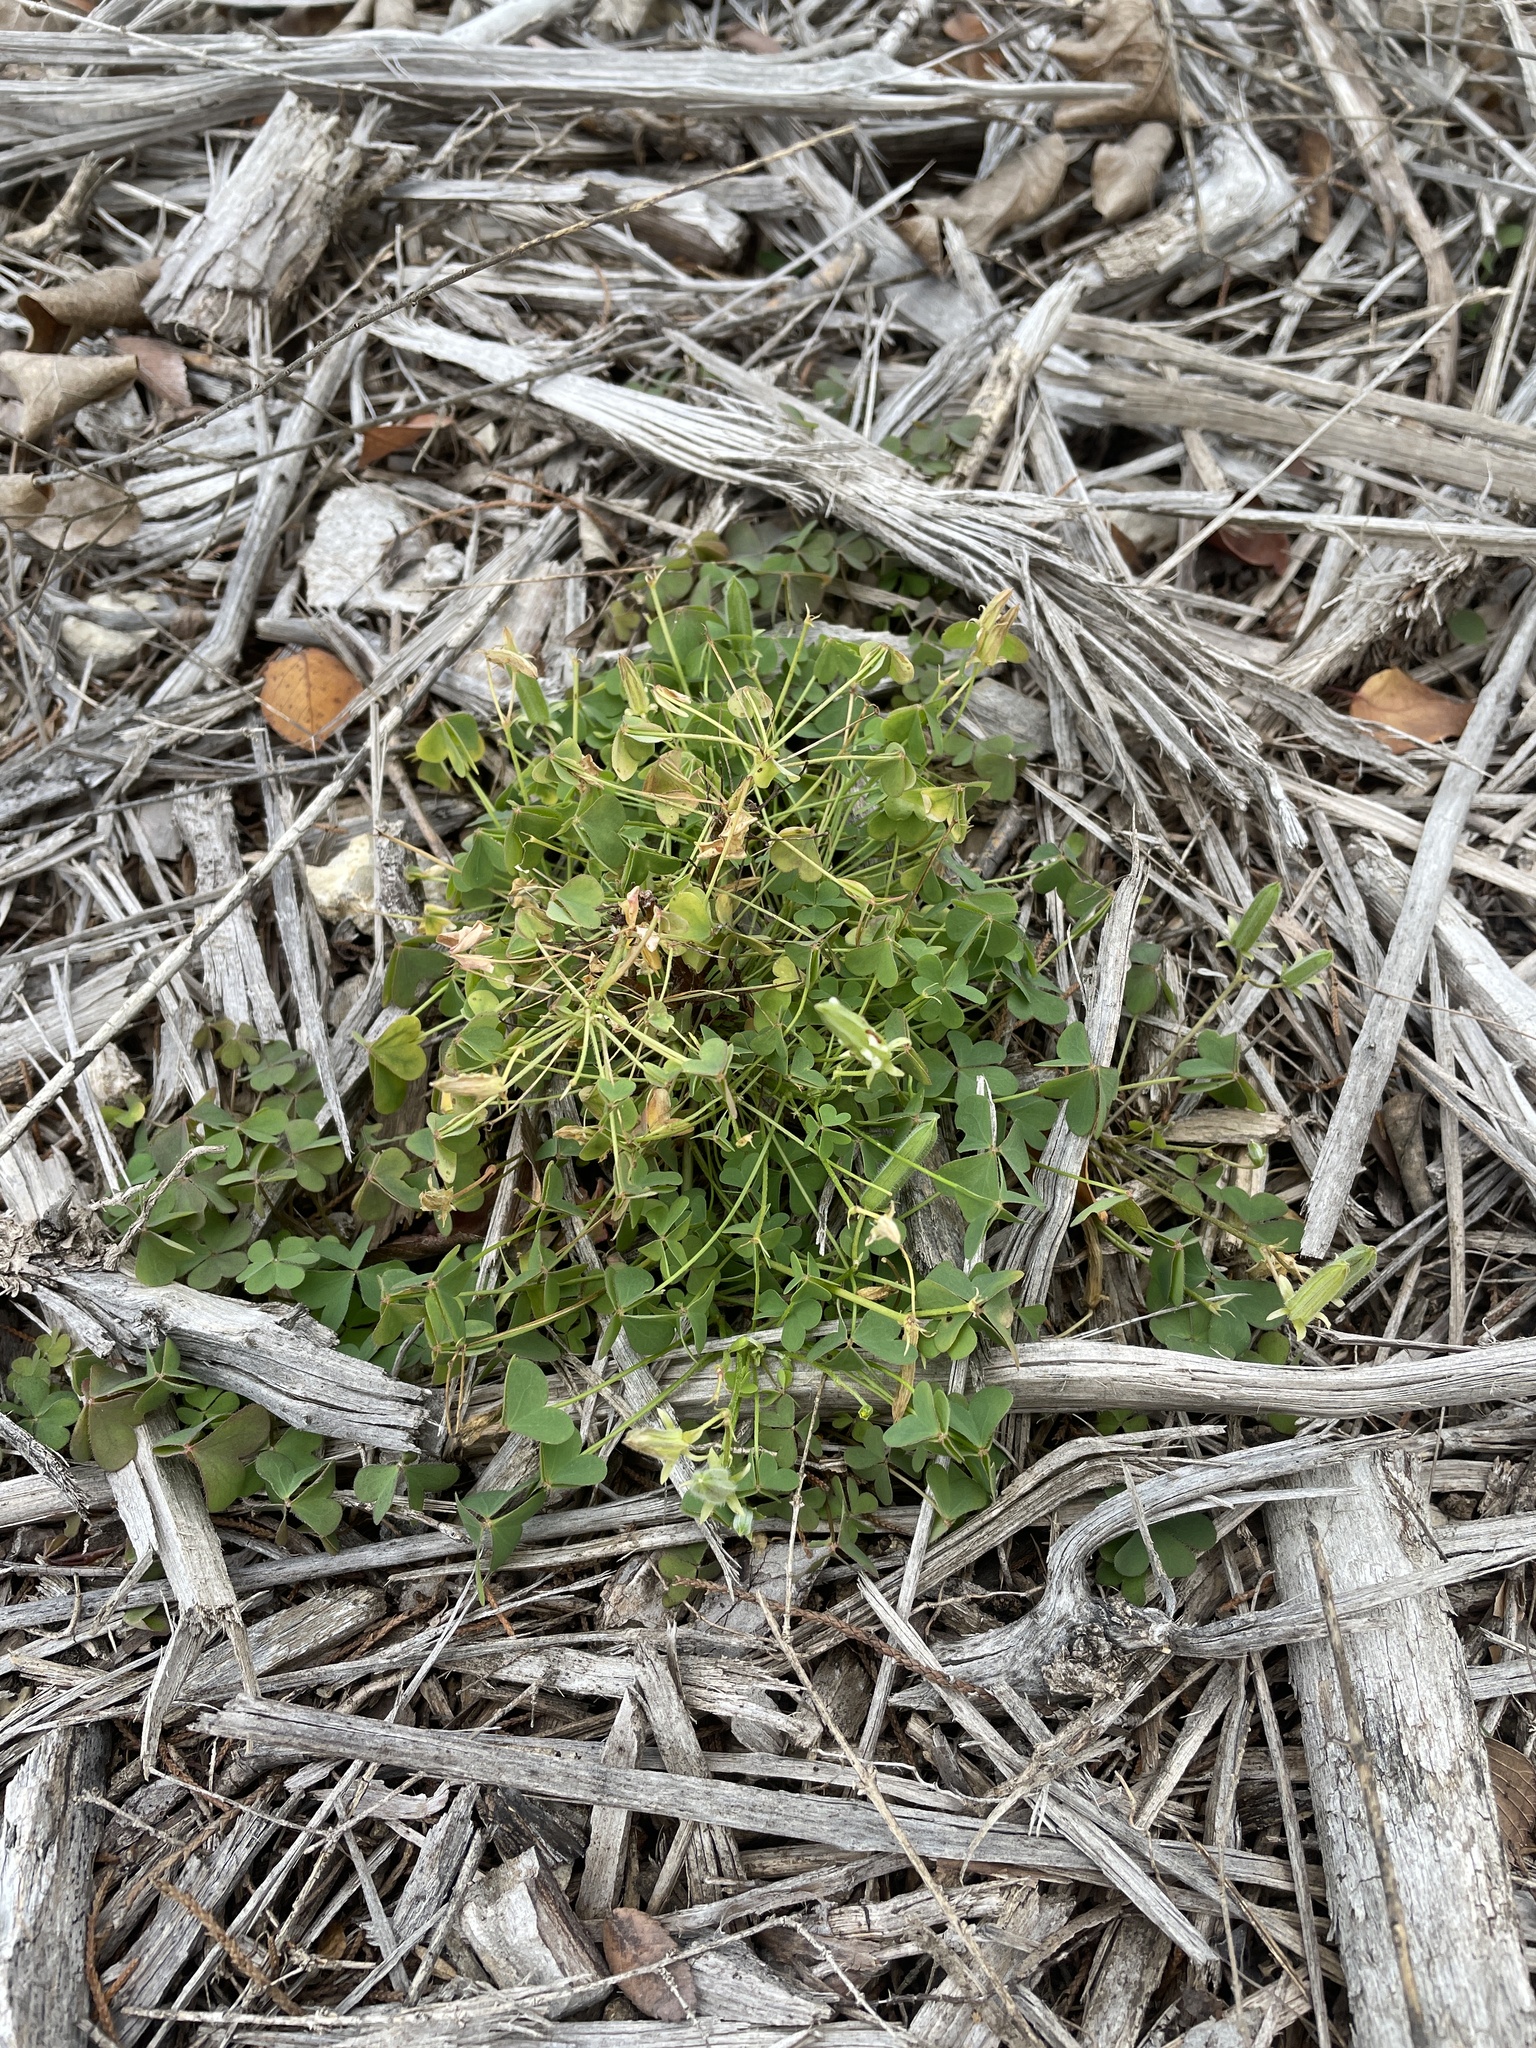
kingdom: Plantae
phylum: Tracheophyta
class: Magnoliopsida
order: Oxalidales
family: Oxalidaceae
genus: Oxalis
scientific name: Oxalis dillenii
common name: Sussex yellow-sorrel
